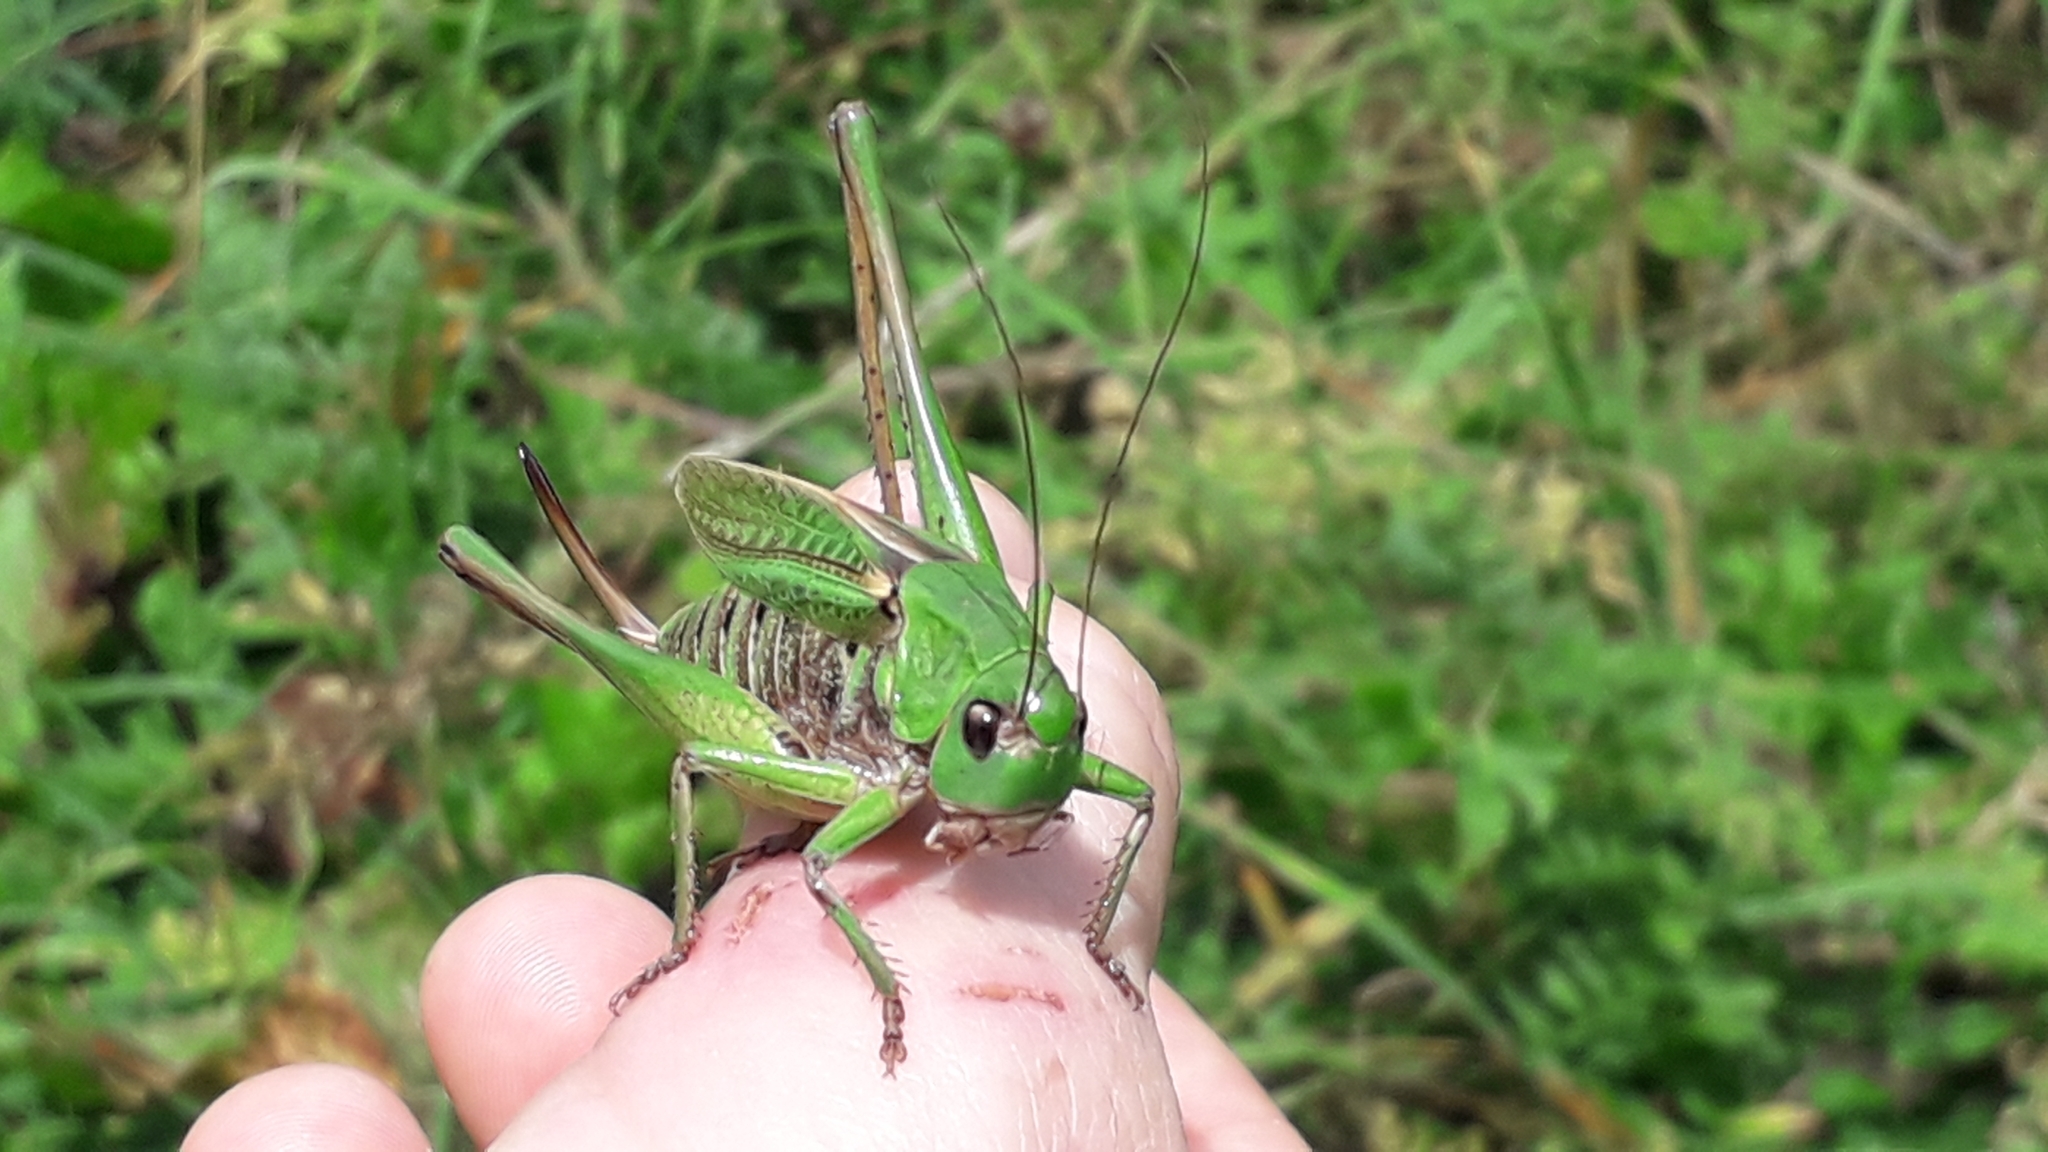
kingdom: Animalia
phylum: Arthropoda
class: Insecta
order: Orthoptera
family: Tettigoniidae
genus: Decticus
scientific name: Decticus verrucivorus
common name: Wart-biter
